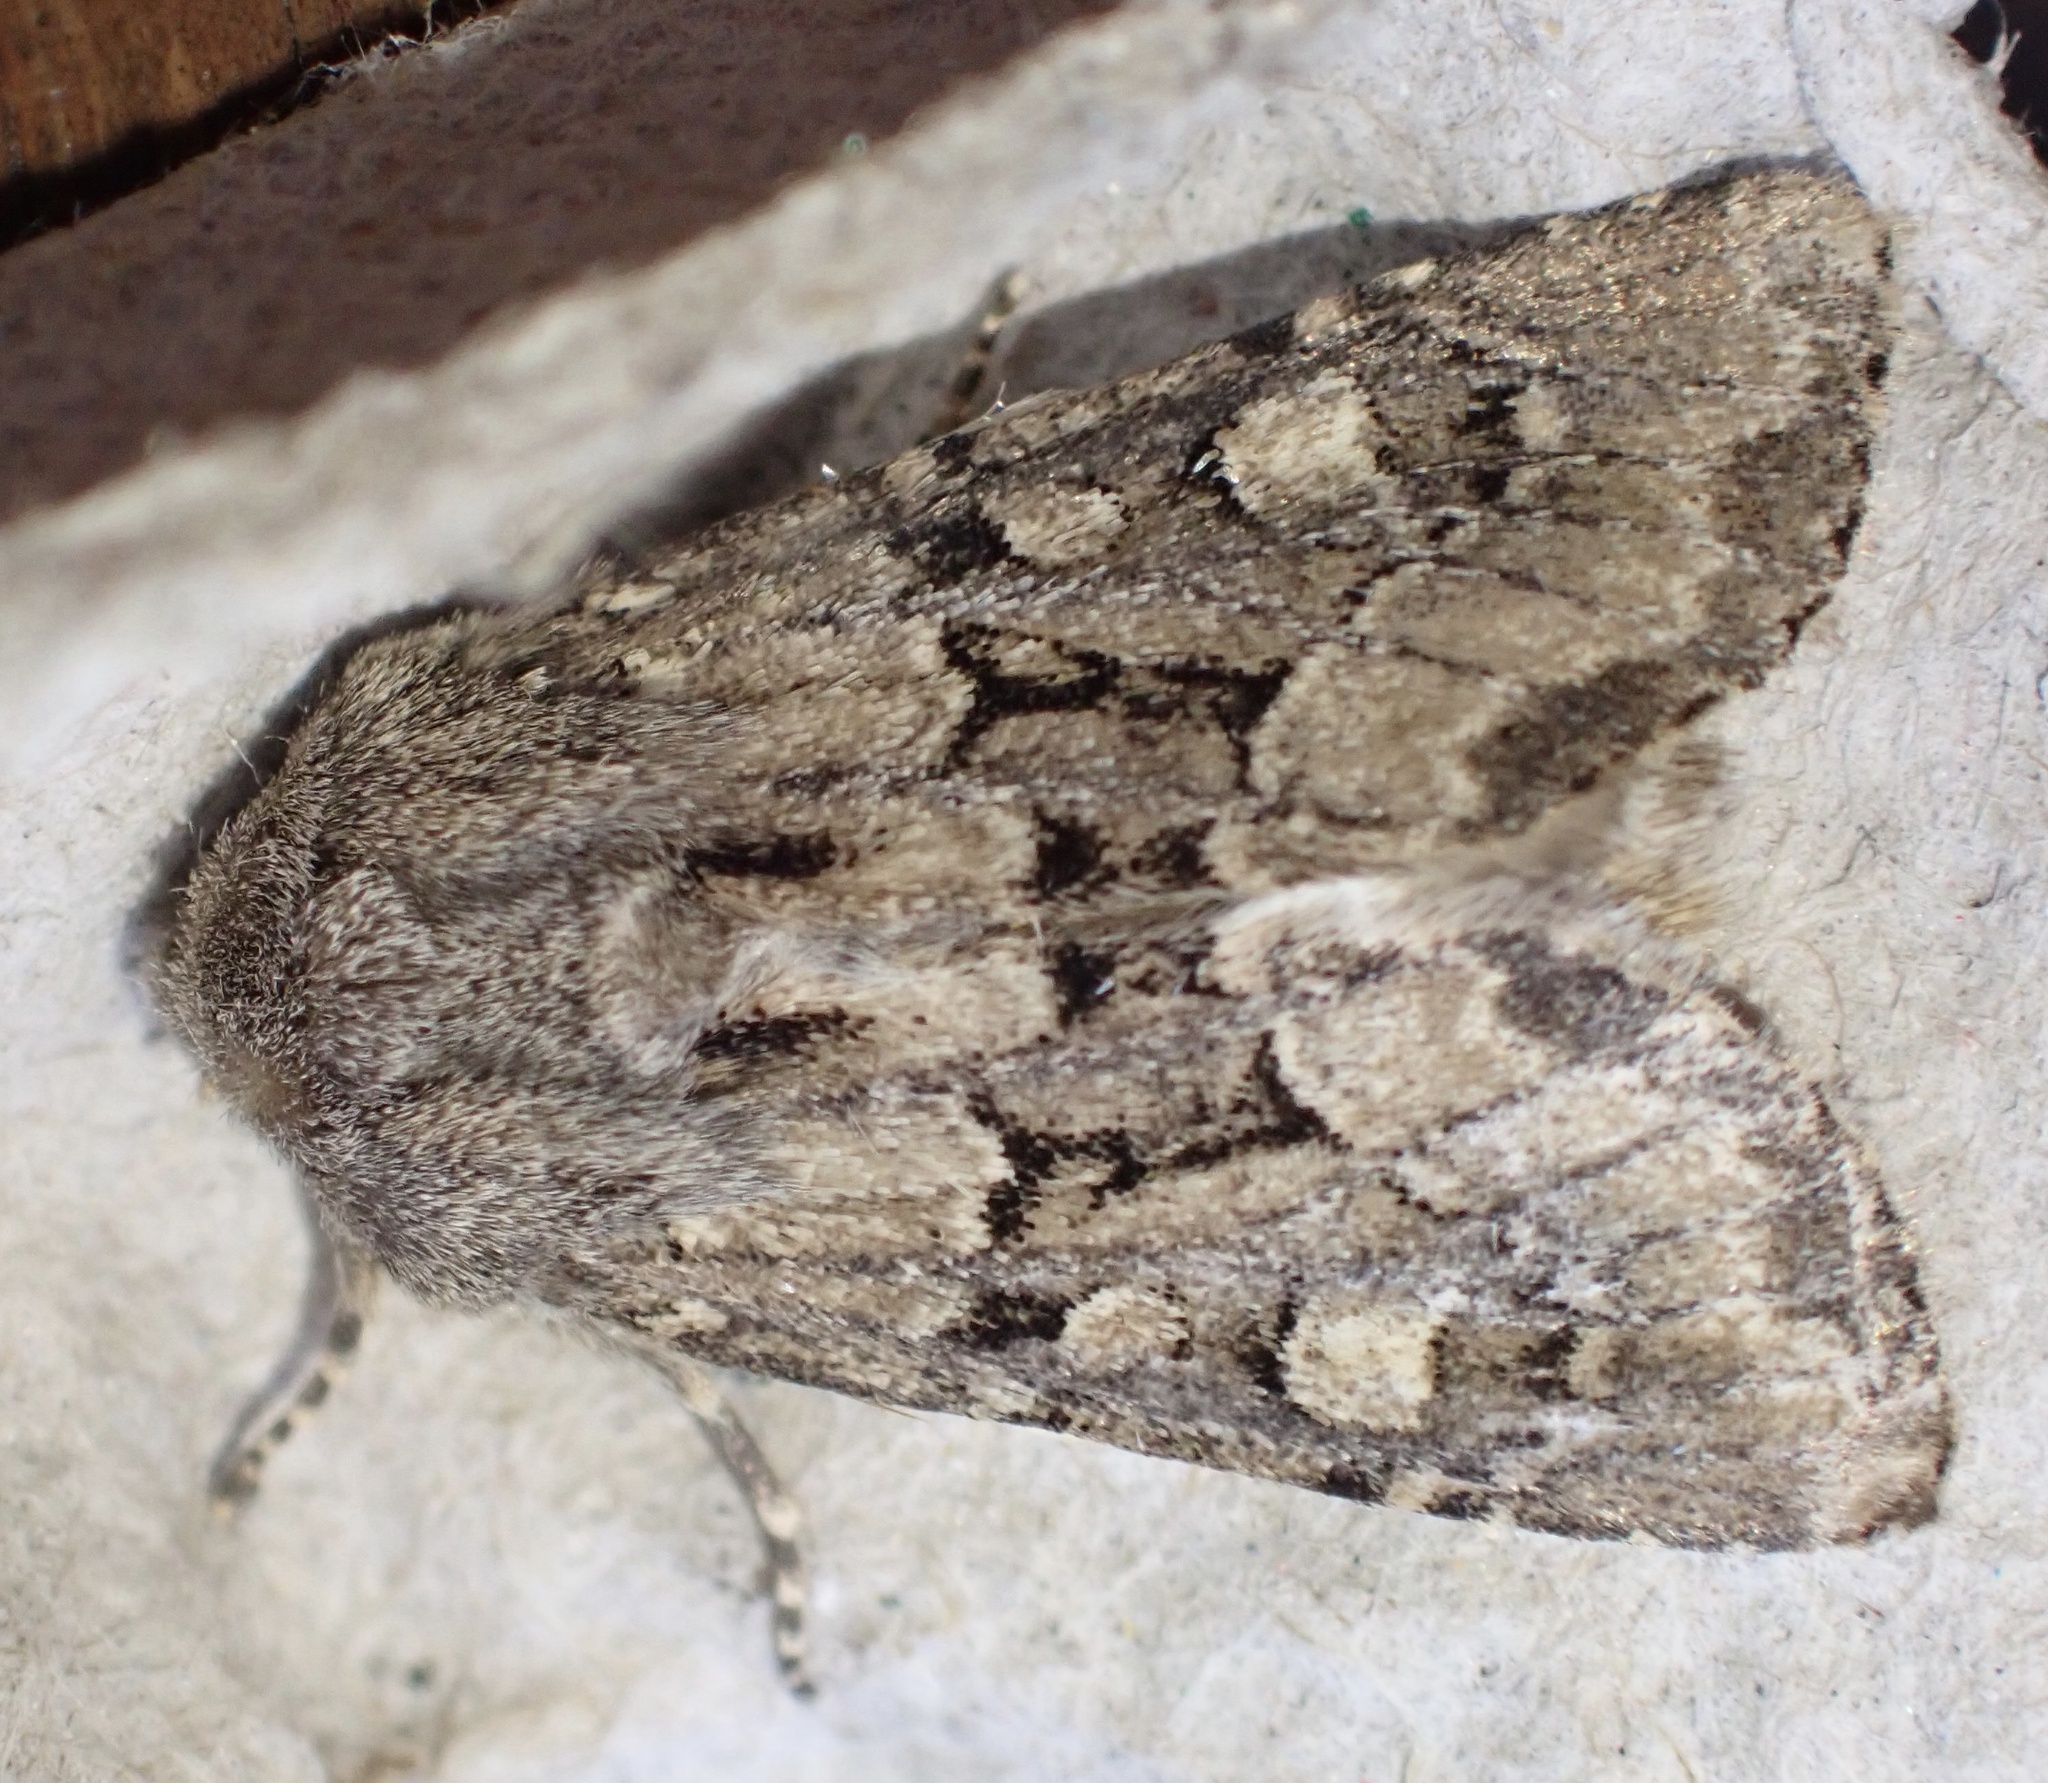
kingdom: Animalia
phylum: Arthropoda
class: Insecta
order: Lepidoptera
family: Noctuidae
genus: Luperina
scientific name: Luperina testacea
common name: Flounced rustic
